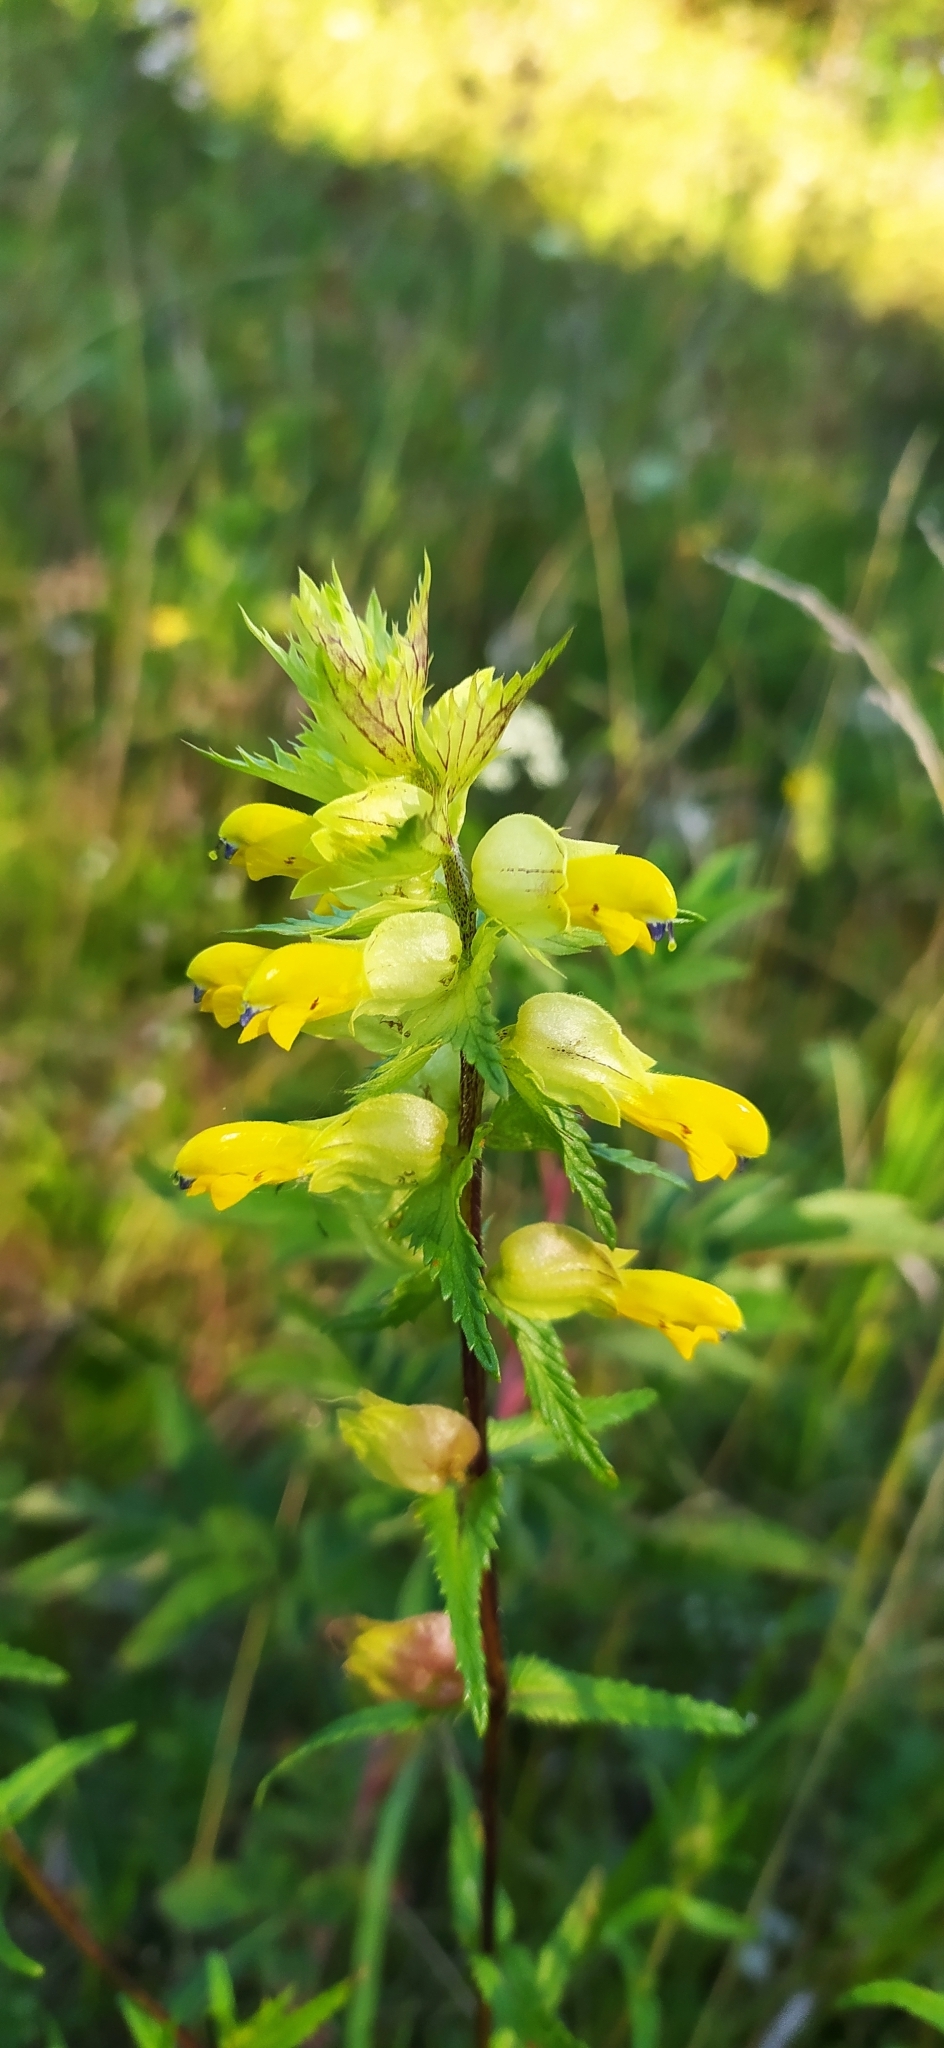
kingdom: Plantae
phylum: Tracheophyta
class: Magnoliopsida
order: Lamiales
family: Orobanchaceae
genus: Rhinanthus
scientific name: Rhinanthus serotinus
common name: Late-flowering yellow rattle
